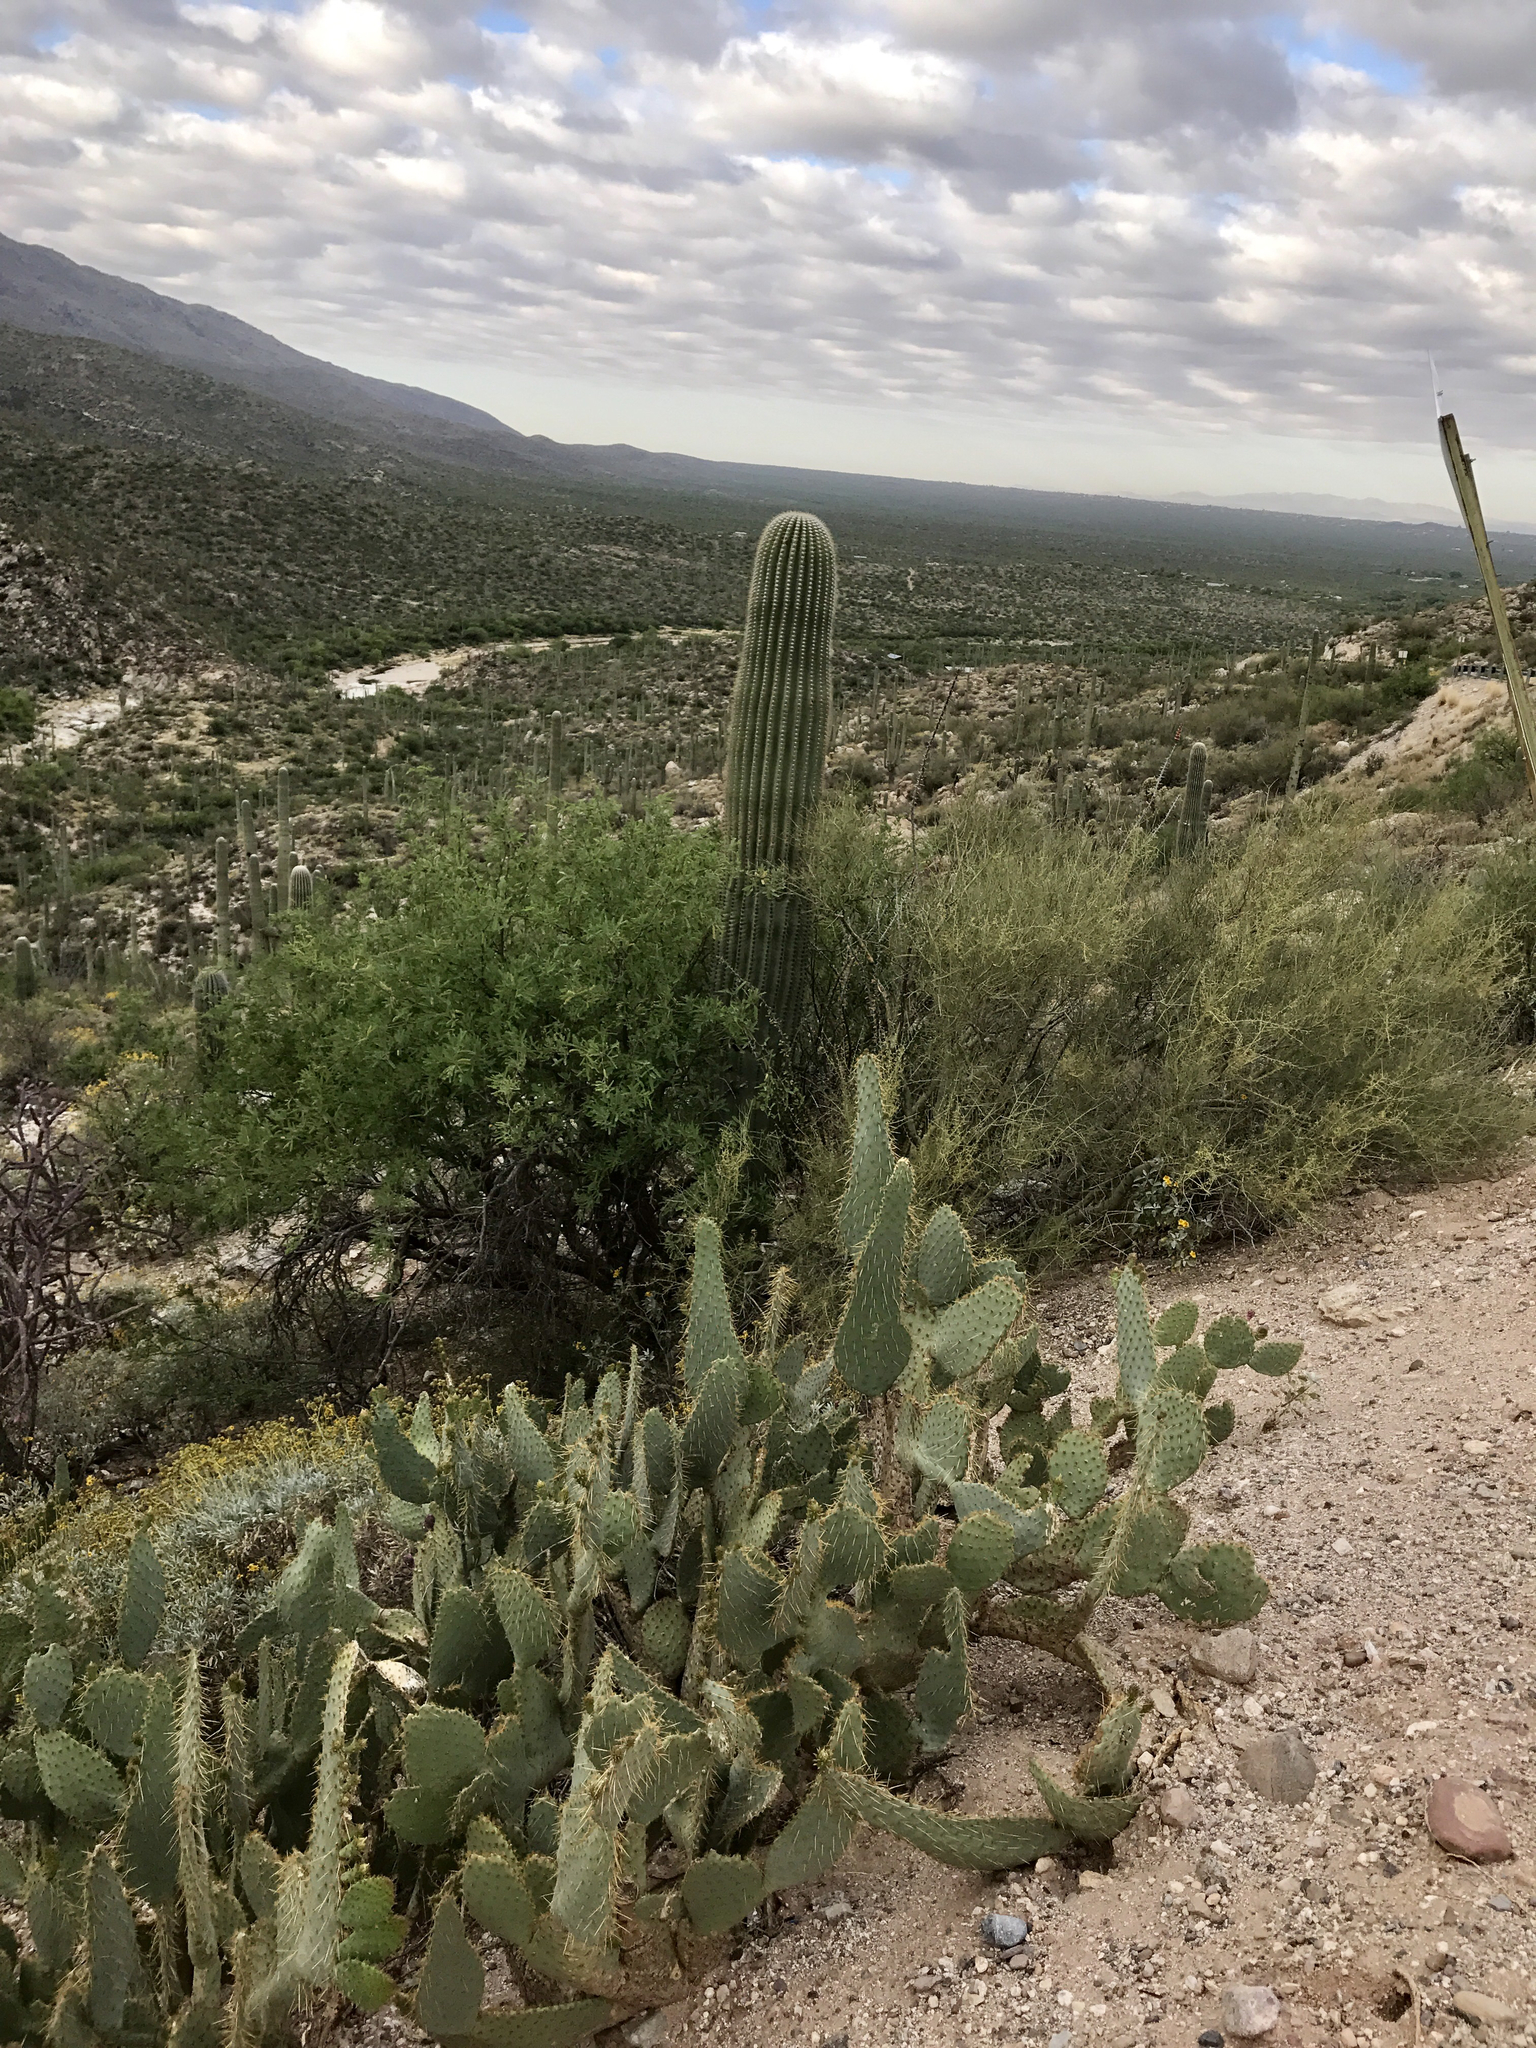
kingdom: Plantae
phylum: Tracheophyta
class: Magnoliopsida
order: Caryophyllales
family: Cactaceae
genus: Carnegiea
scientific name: Carnegiea gigantea
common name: Saguaro
